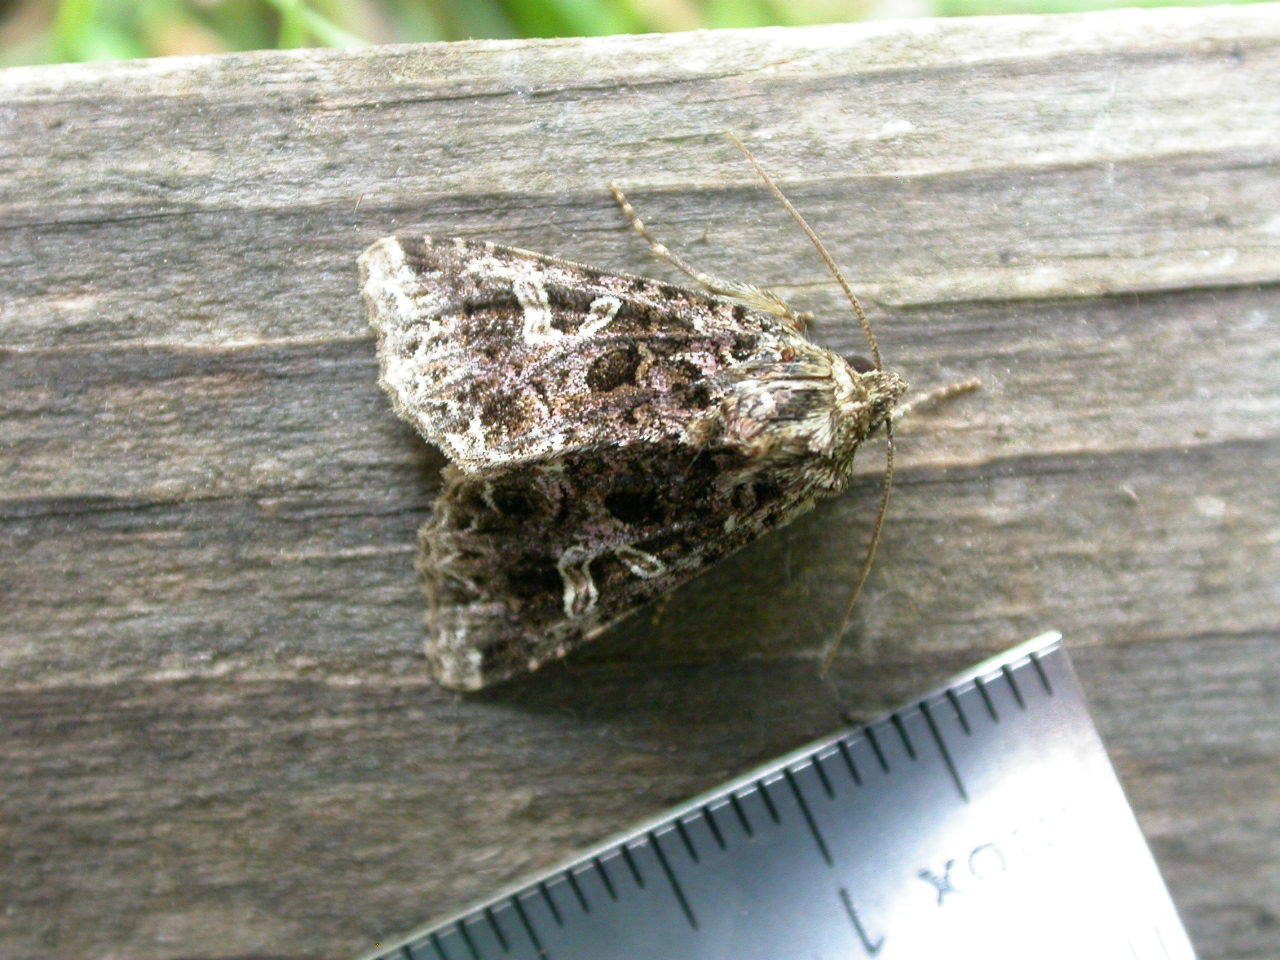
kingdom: Animalia
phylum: Arthropoda
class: Insecta
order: Lepidoptera
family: Noctuidae
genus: Sideridis
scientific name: Sideridis rivularis
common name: Campion
